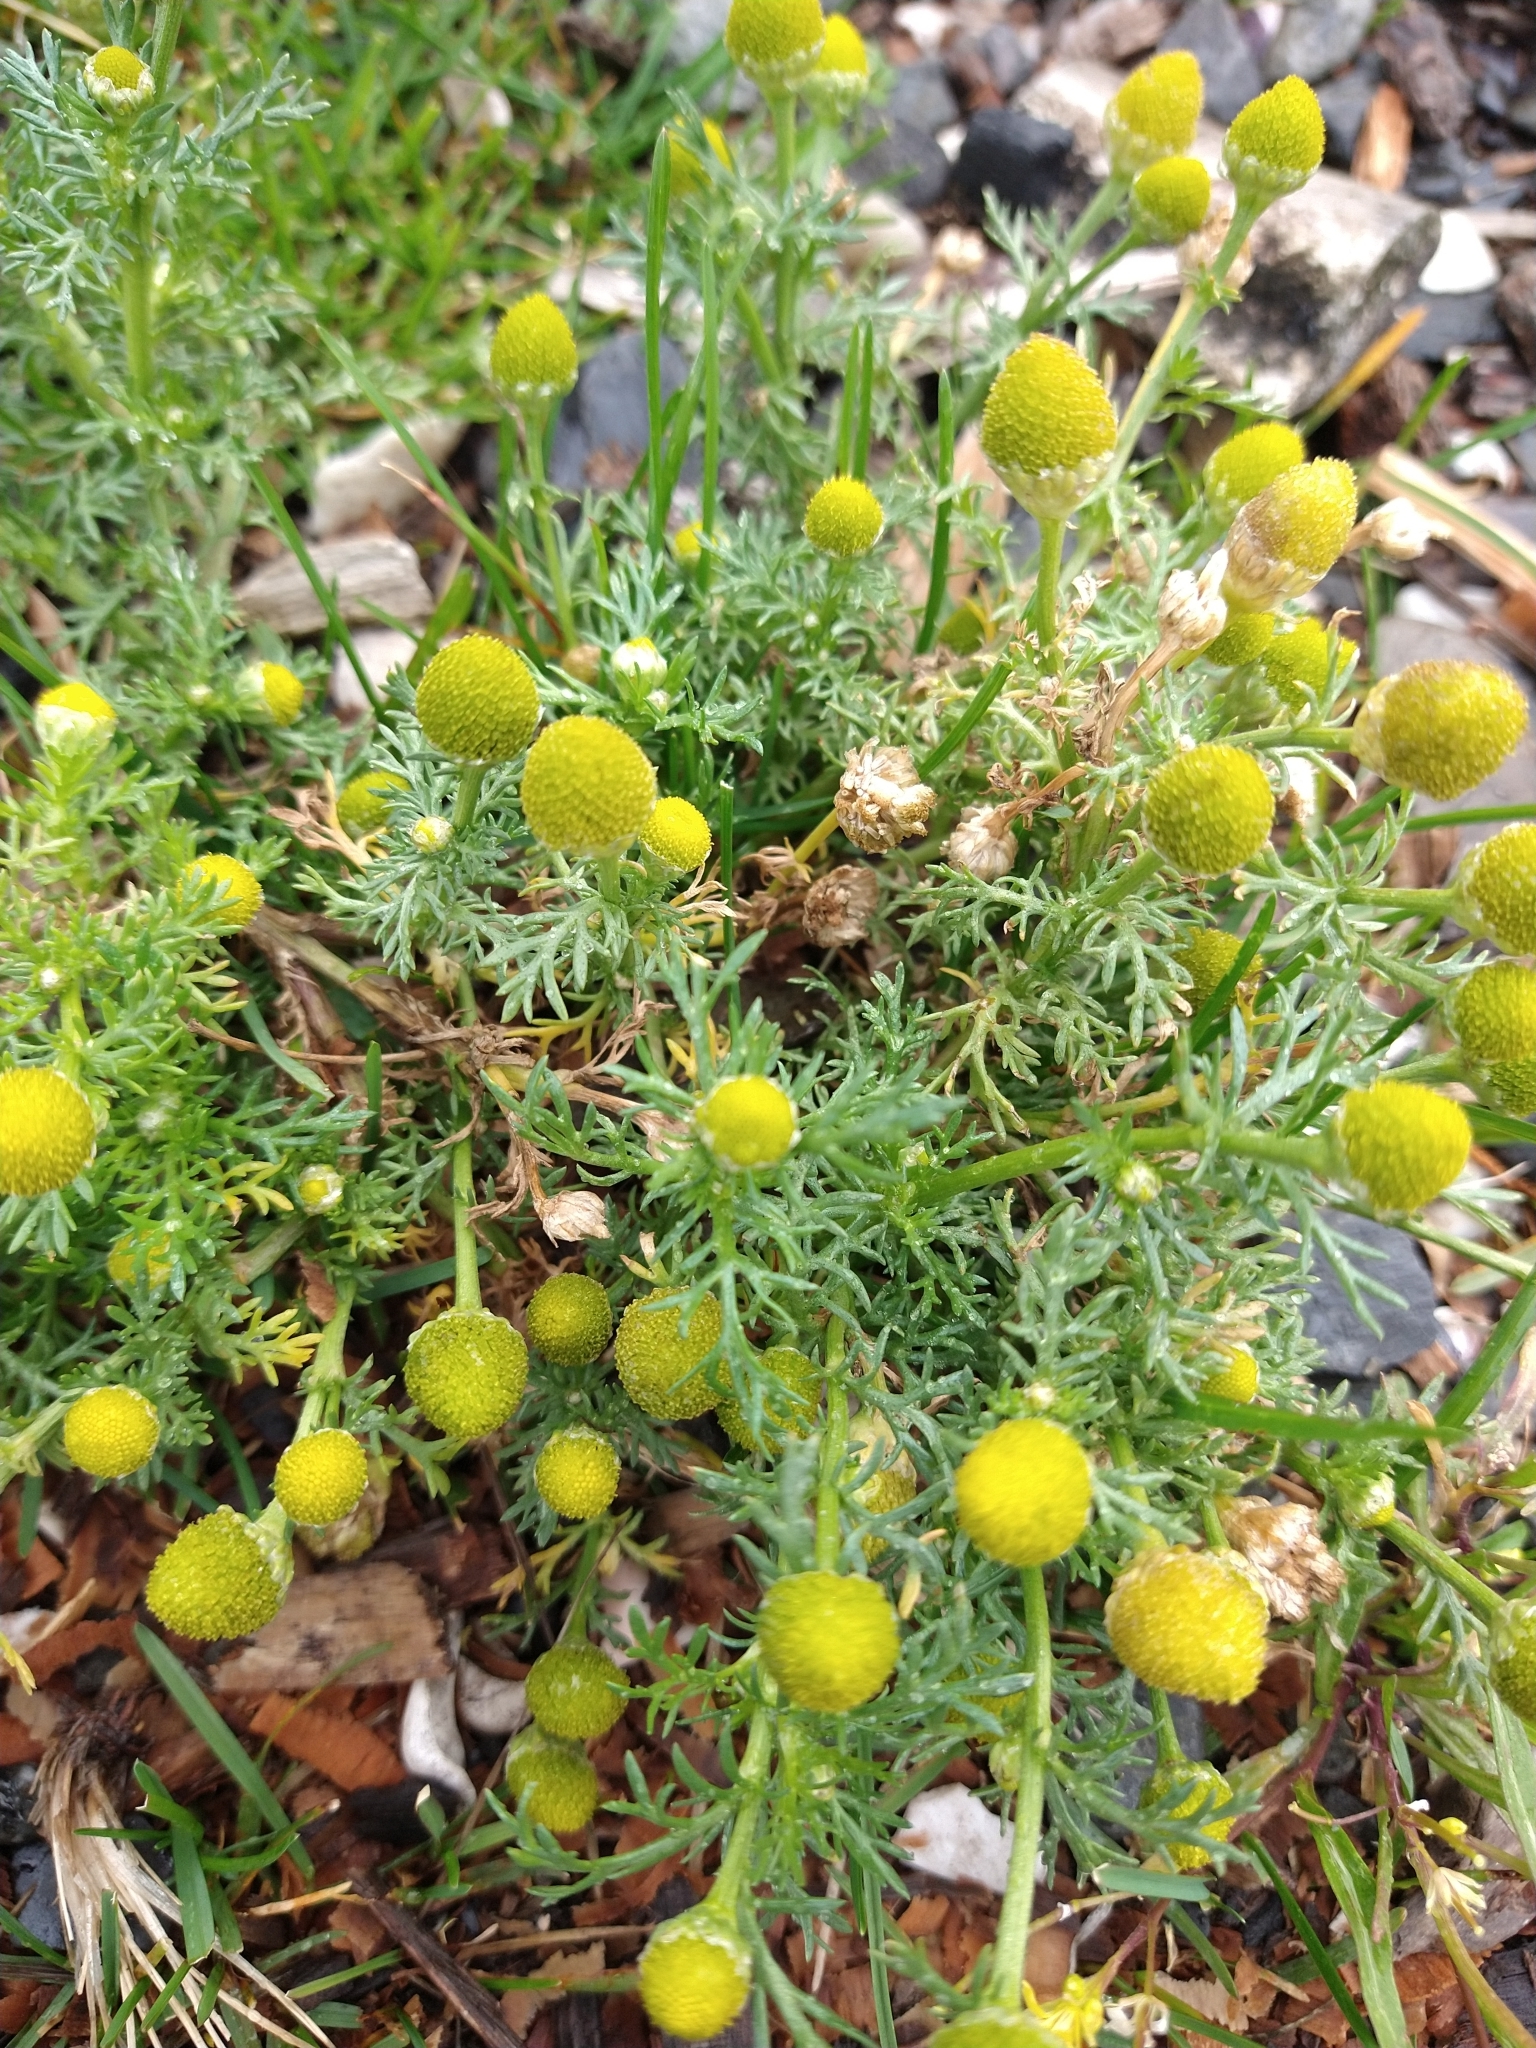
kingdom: Plantae
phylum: Tracheophyta
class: Magnoliopsida
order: Asterales
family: Asteraceae
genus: Matricaria
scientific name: Matricaria discoidea
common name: Disc mayweed
